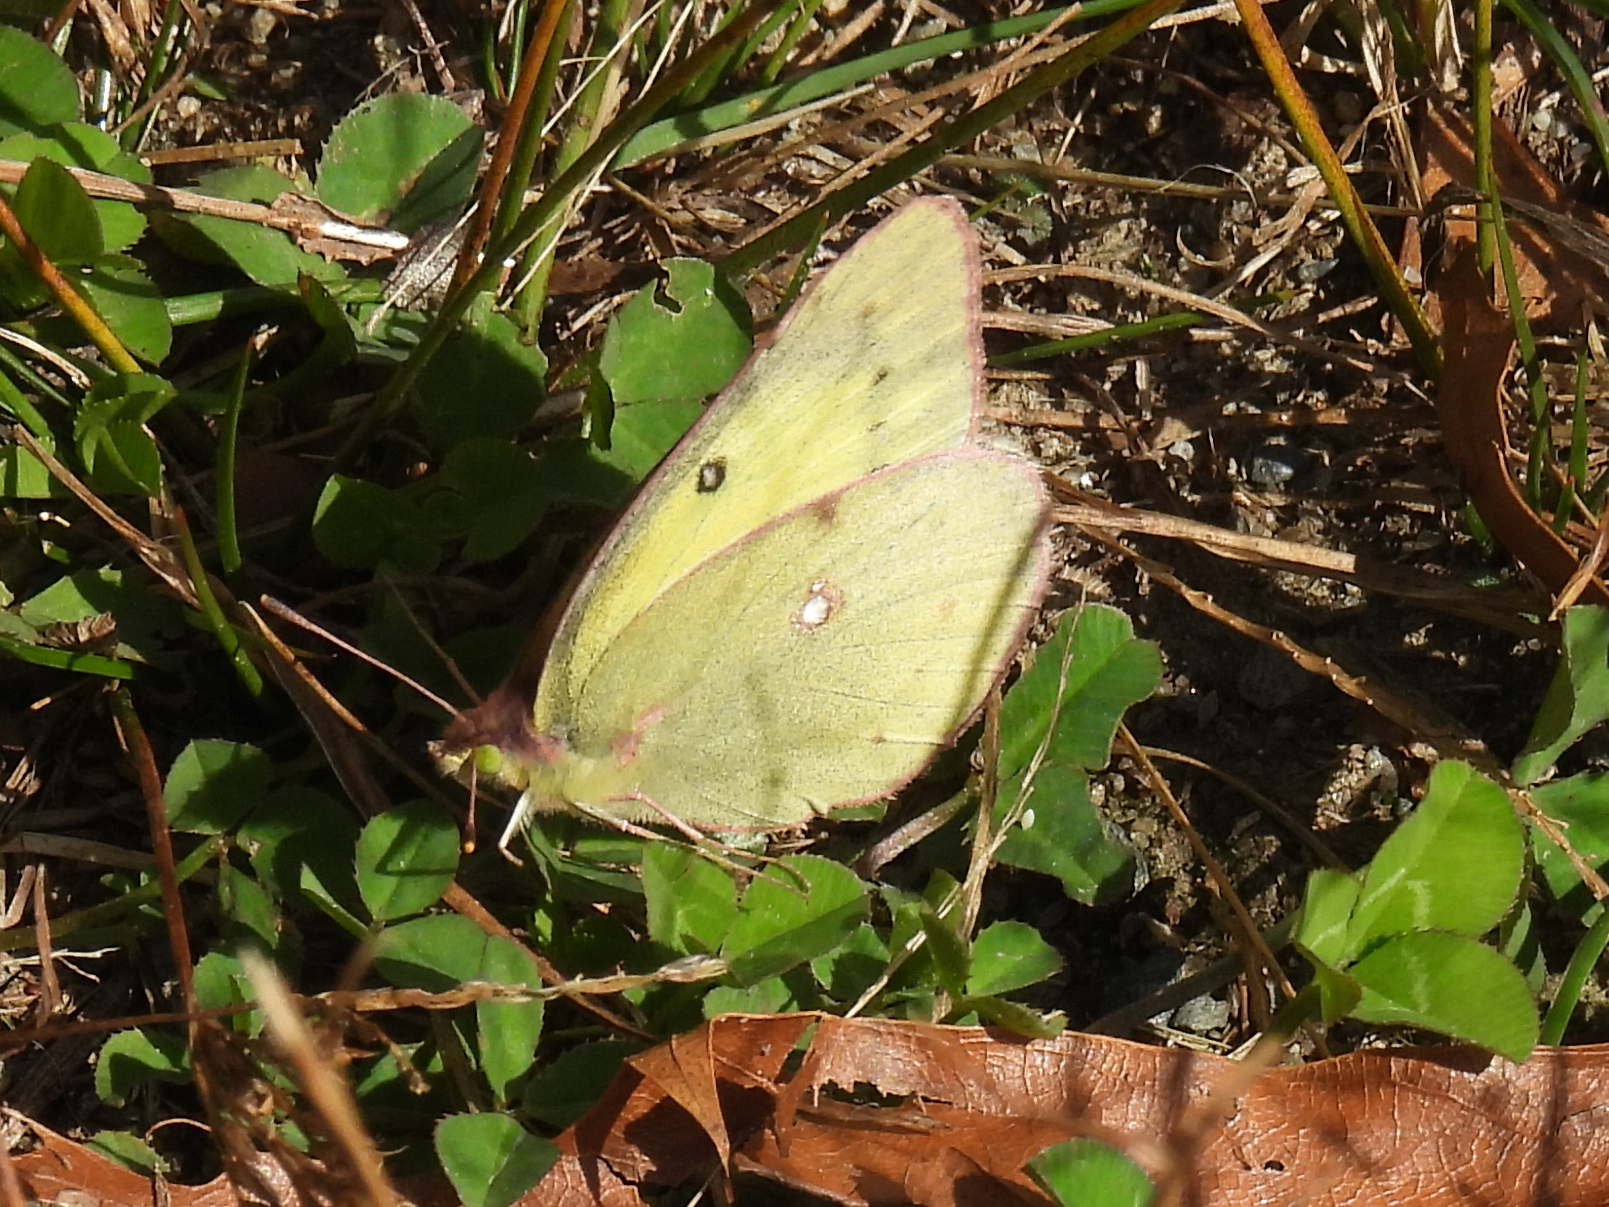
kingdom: Animalia
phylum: Arthropoda
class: Insecta
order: Lepidoptera
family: Pieridae
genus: Colias
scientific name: Colias philodice
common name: Clouded sulphur
